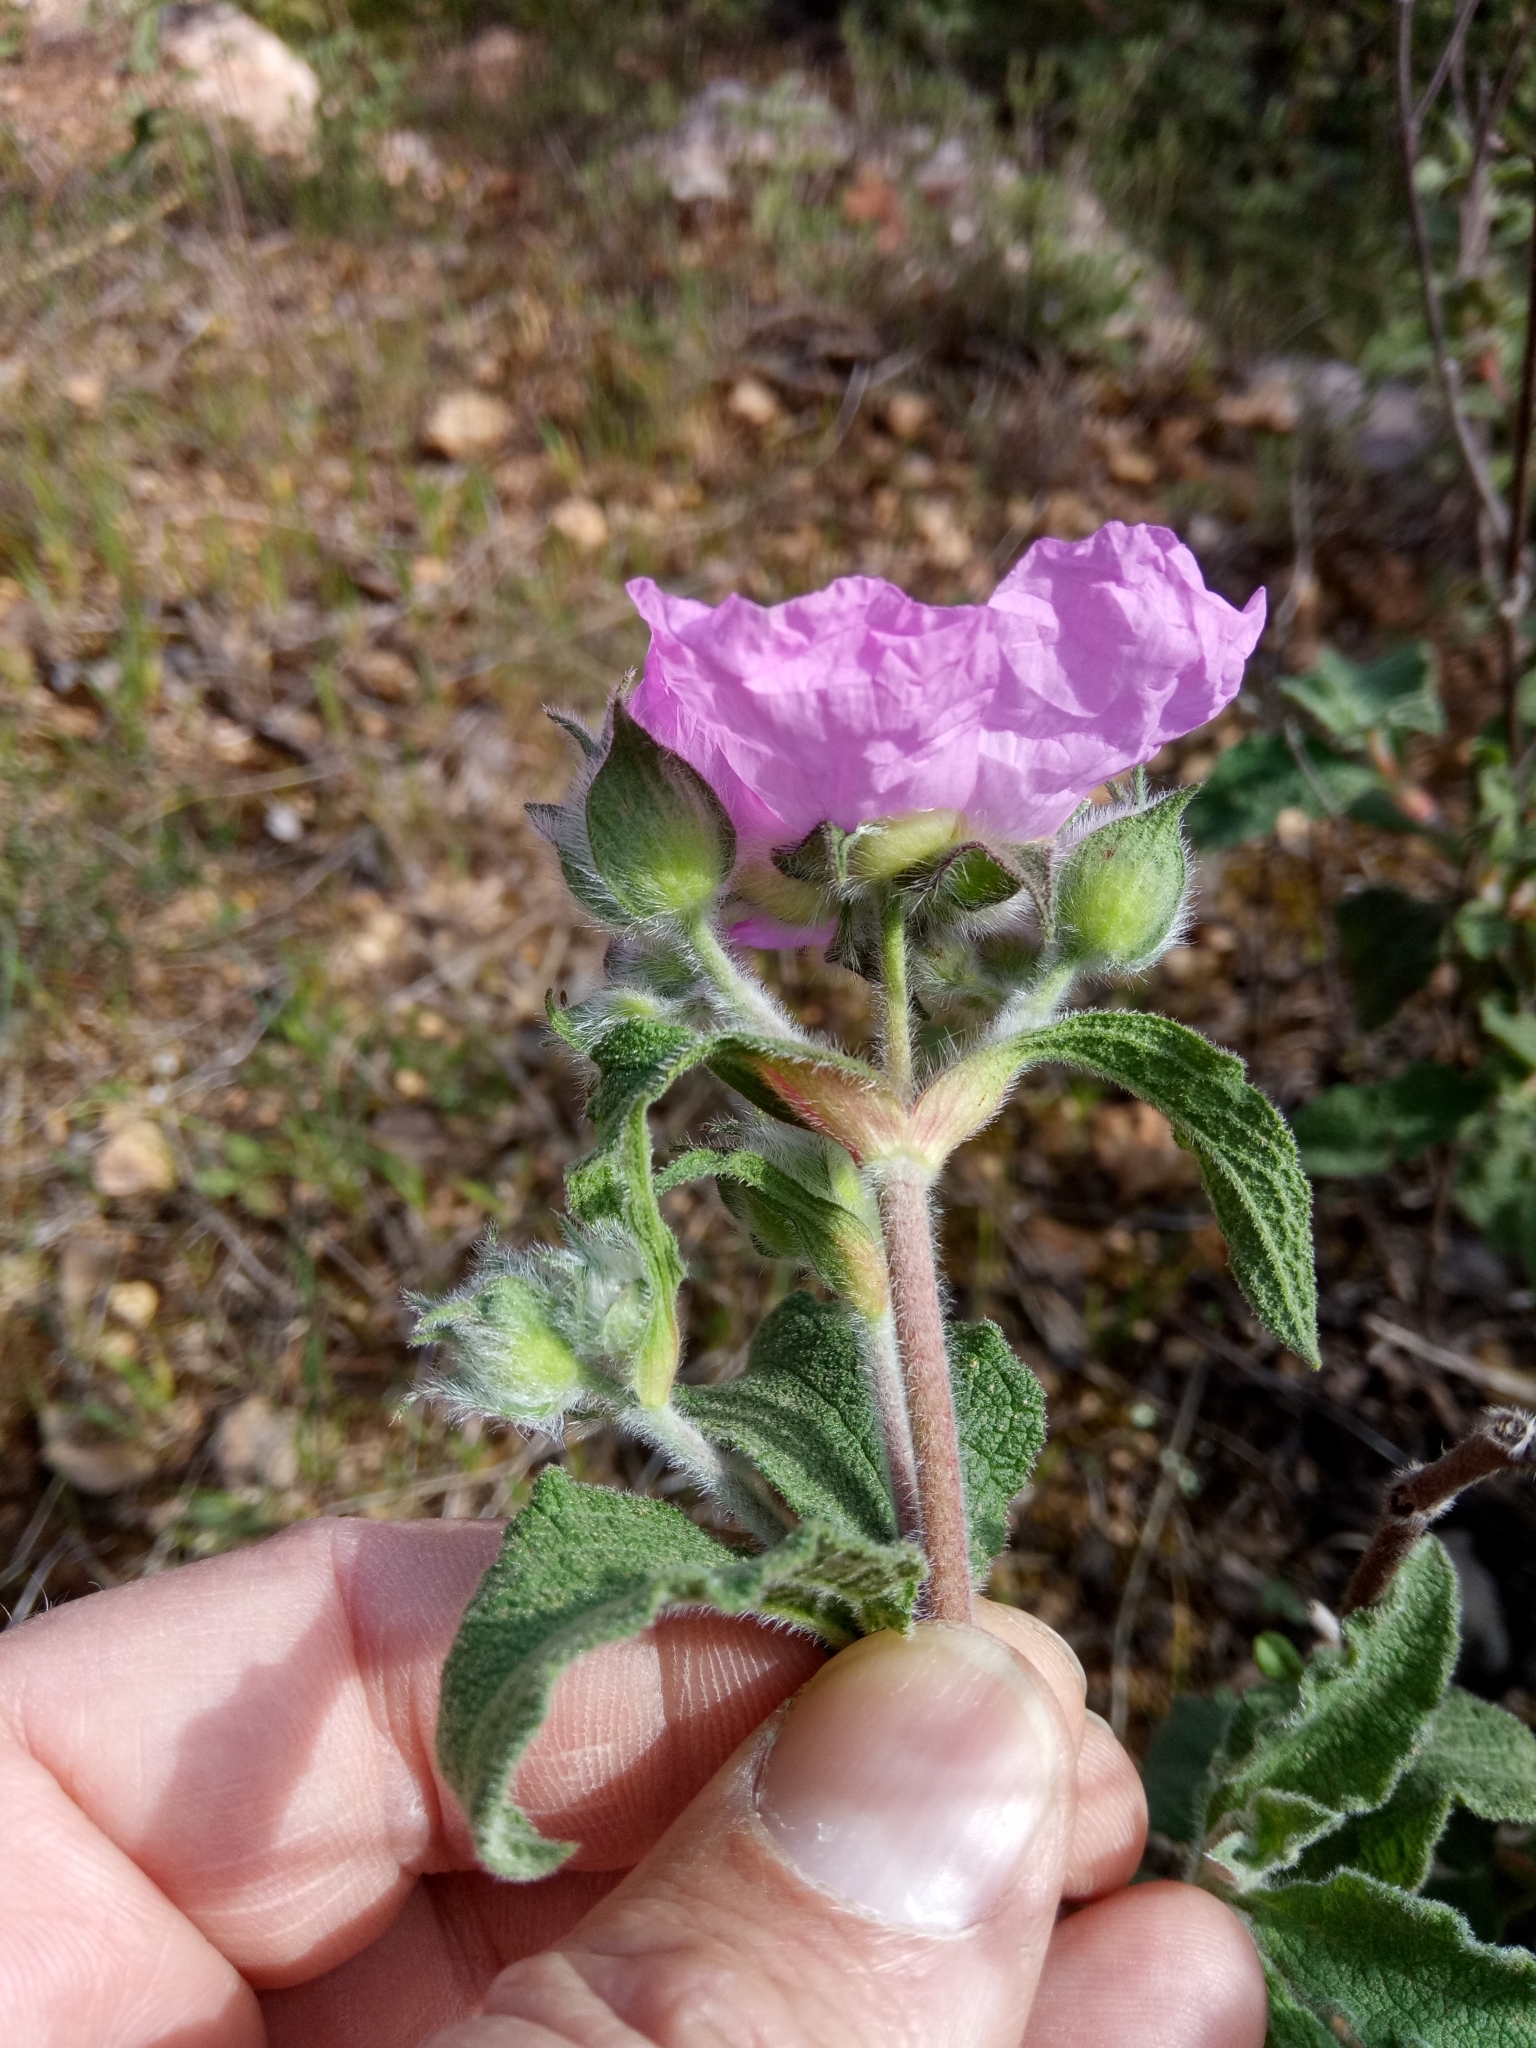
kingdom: Plantae
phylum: Tracheophyta
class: Magnoliopsida
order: Malvales
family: Cistaceae
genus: Cistus
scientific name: Cistus creticus
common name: Cretan rockrose
